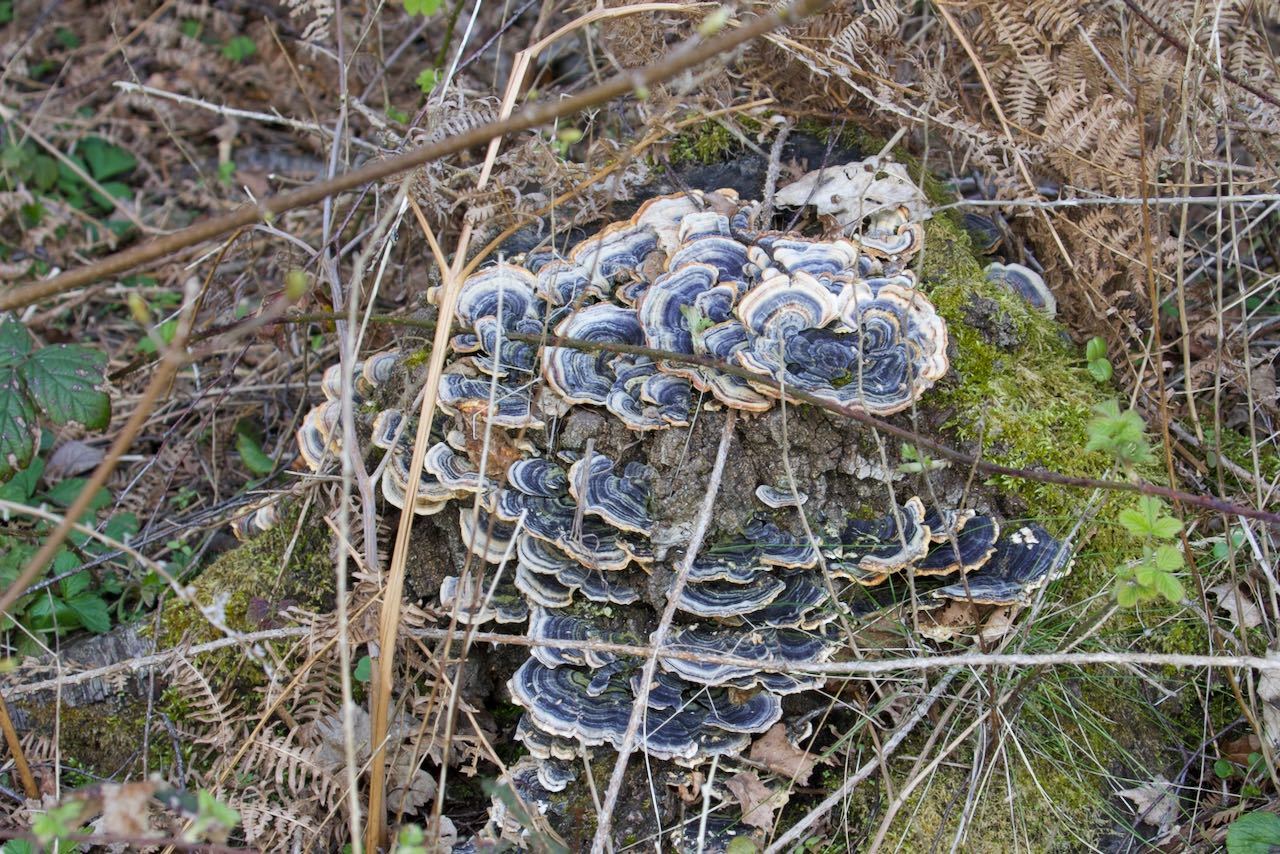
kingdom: Fungi
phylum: Basidiomycota
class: Agaricomycetes
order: Polyporales
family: Polyporaceae
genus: Trametes
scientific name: Trametes versicolor
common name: Turkeytail
